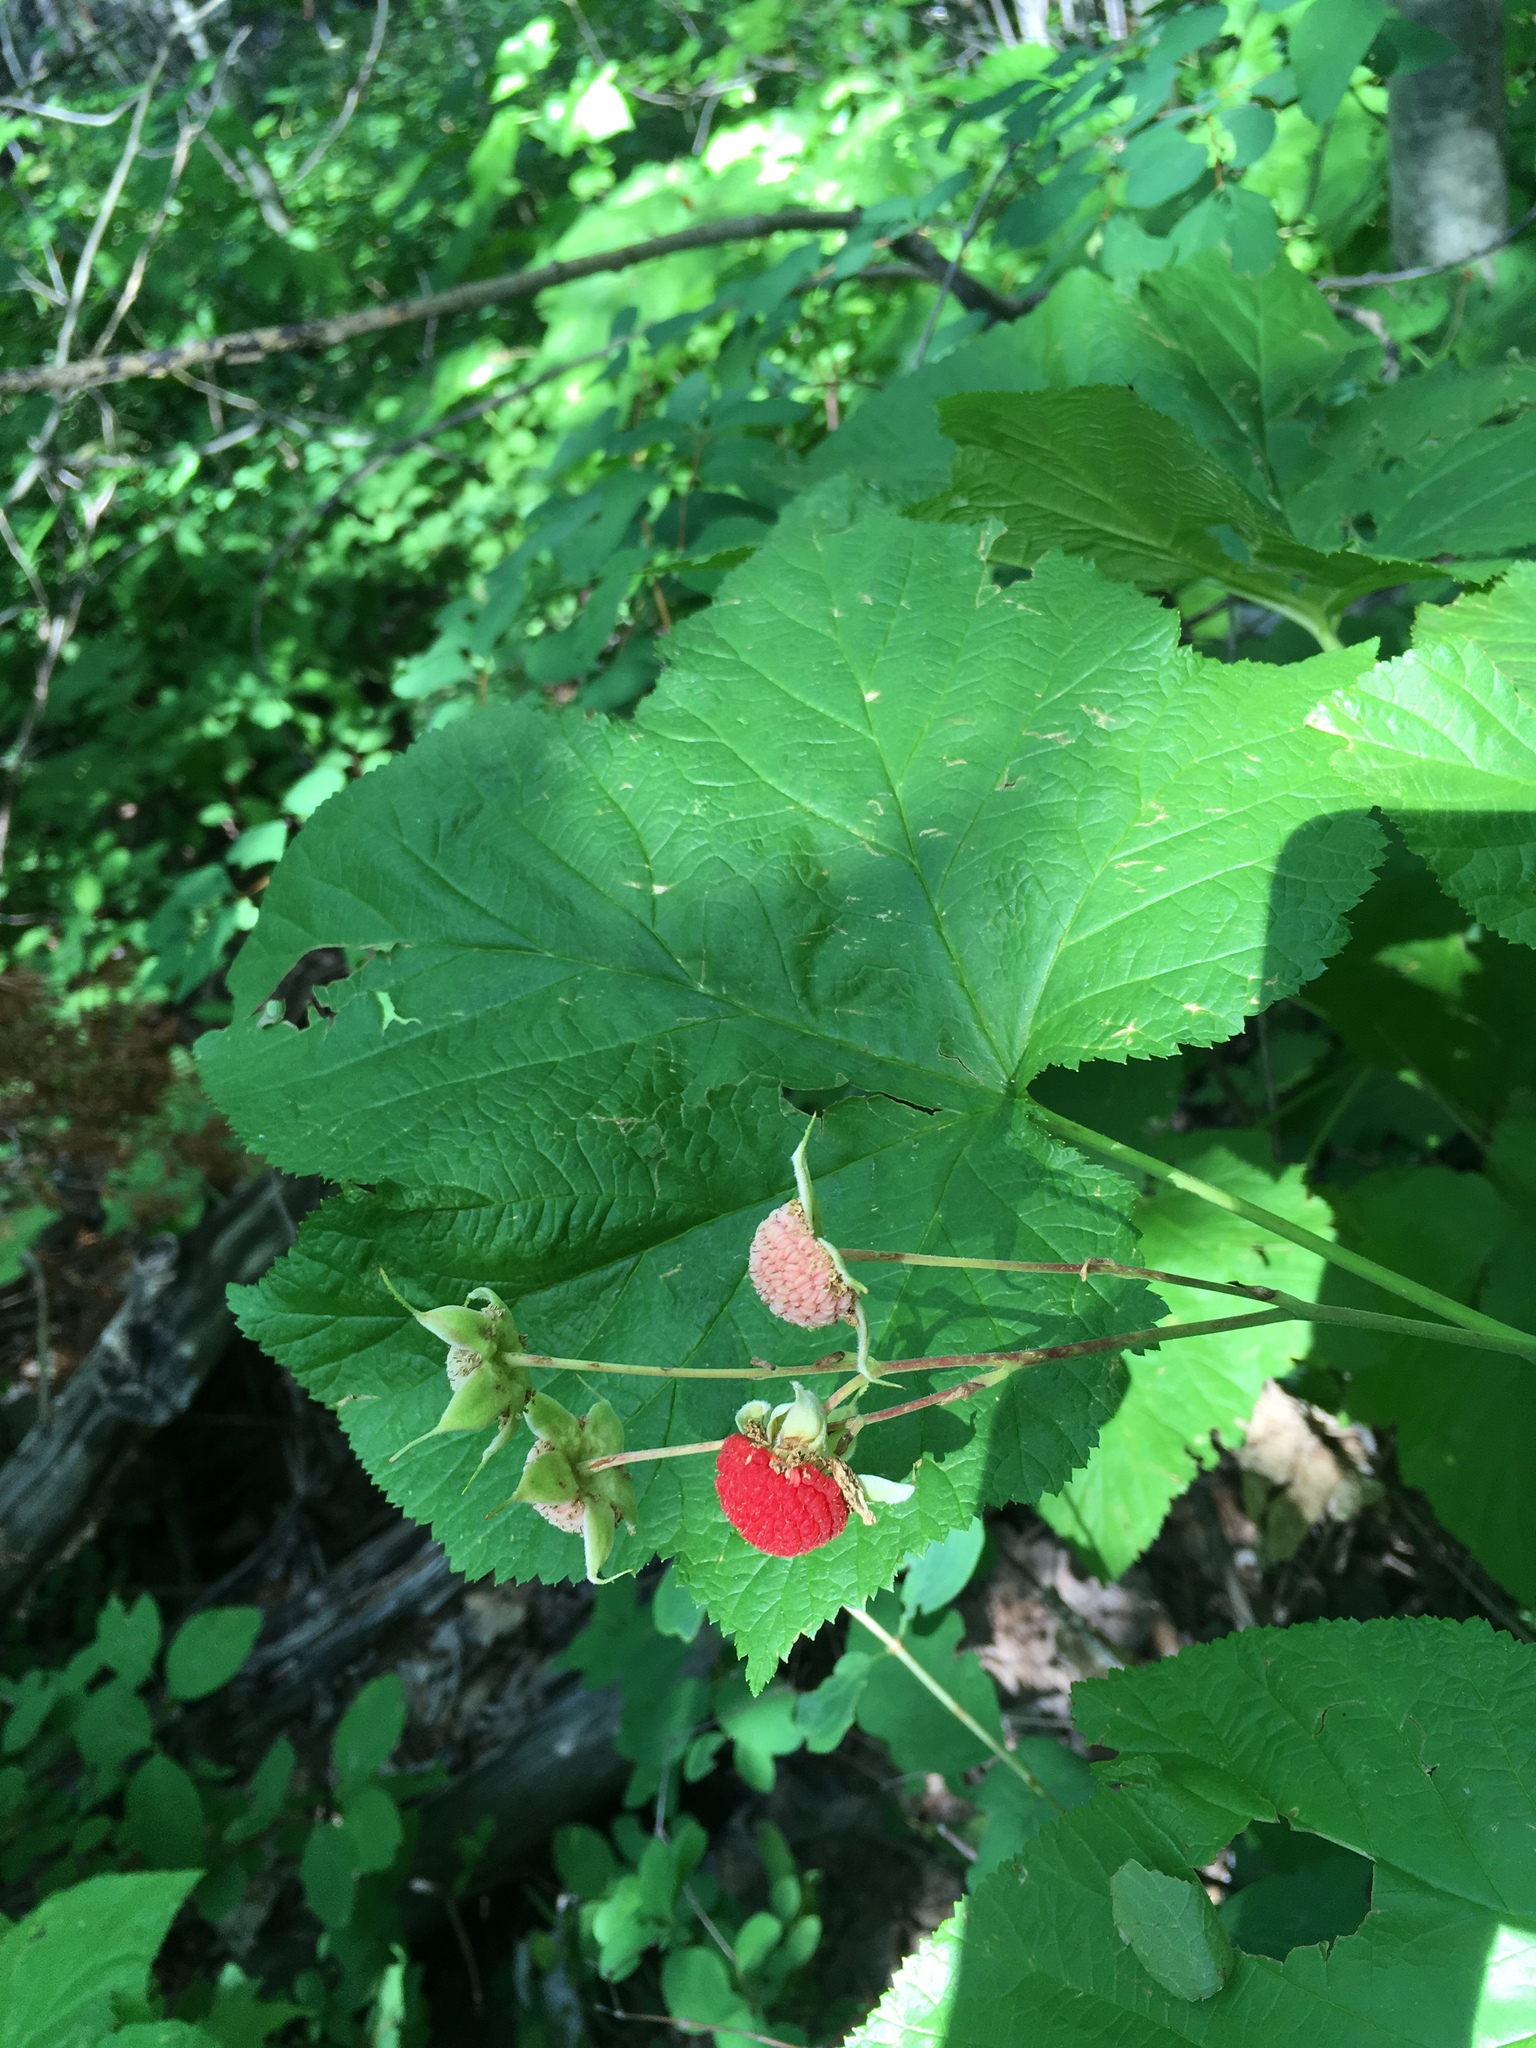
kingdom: Plantae
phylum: Tracheophyta
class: Magnoliopsida
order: Rosales
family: Rosaceae
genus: Rubus
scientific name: Rubus parviflorus
